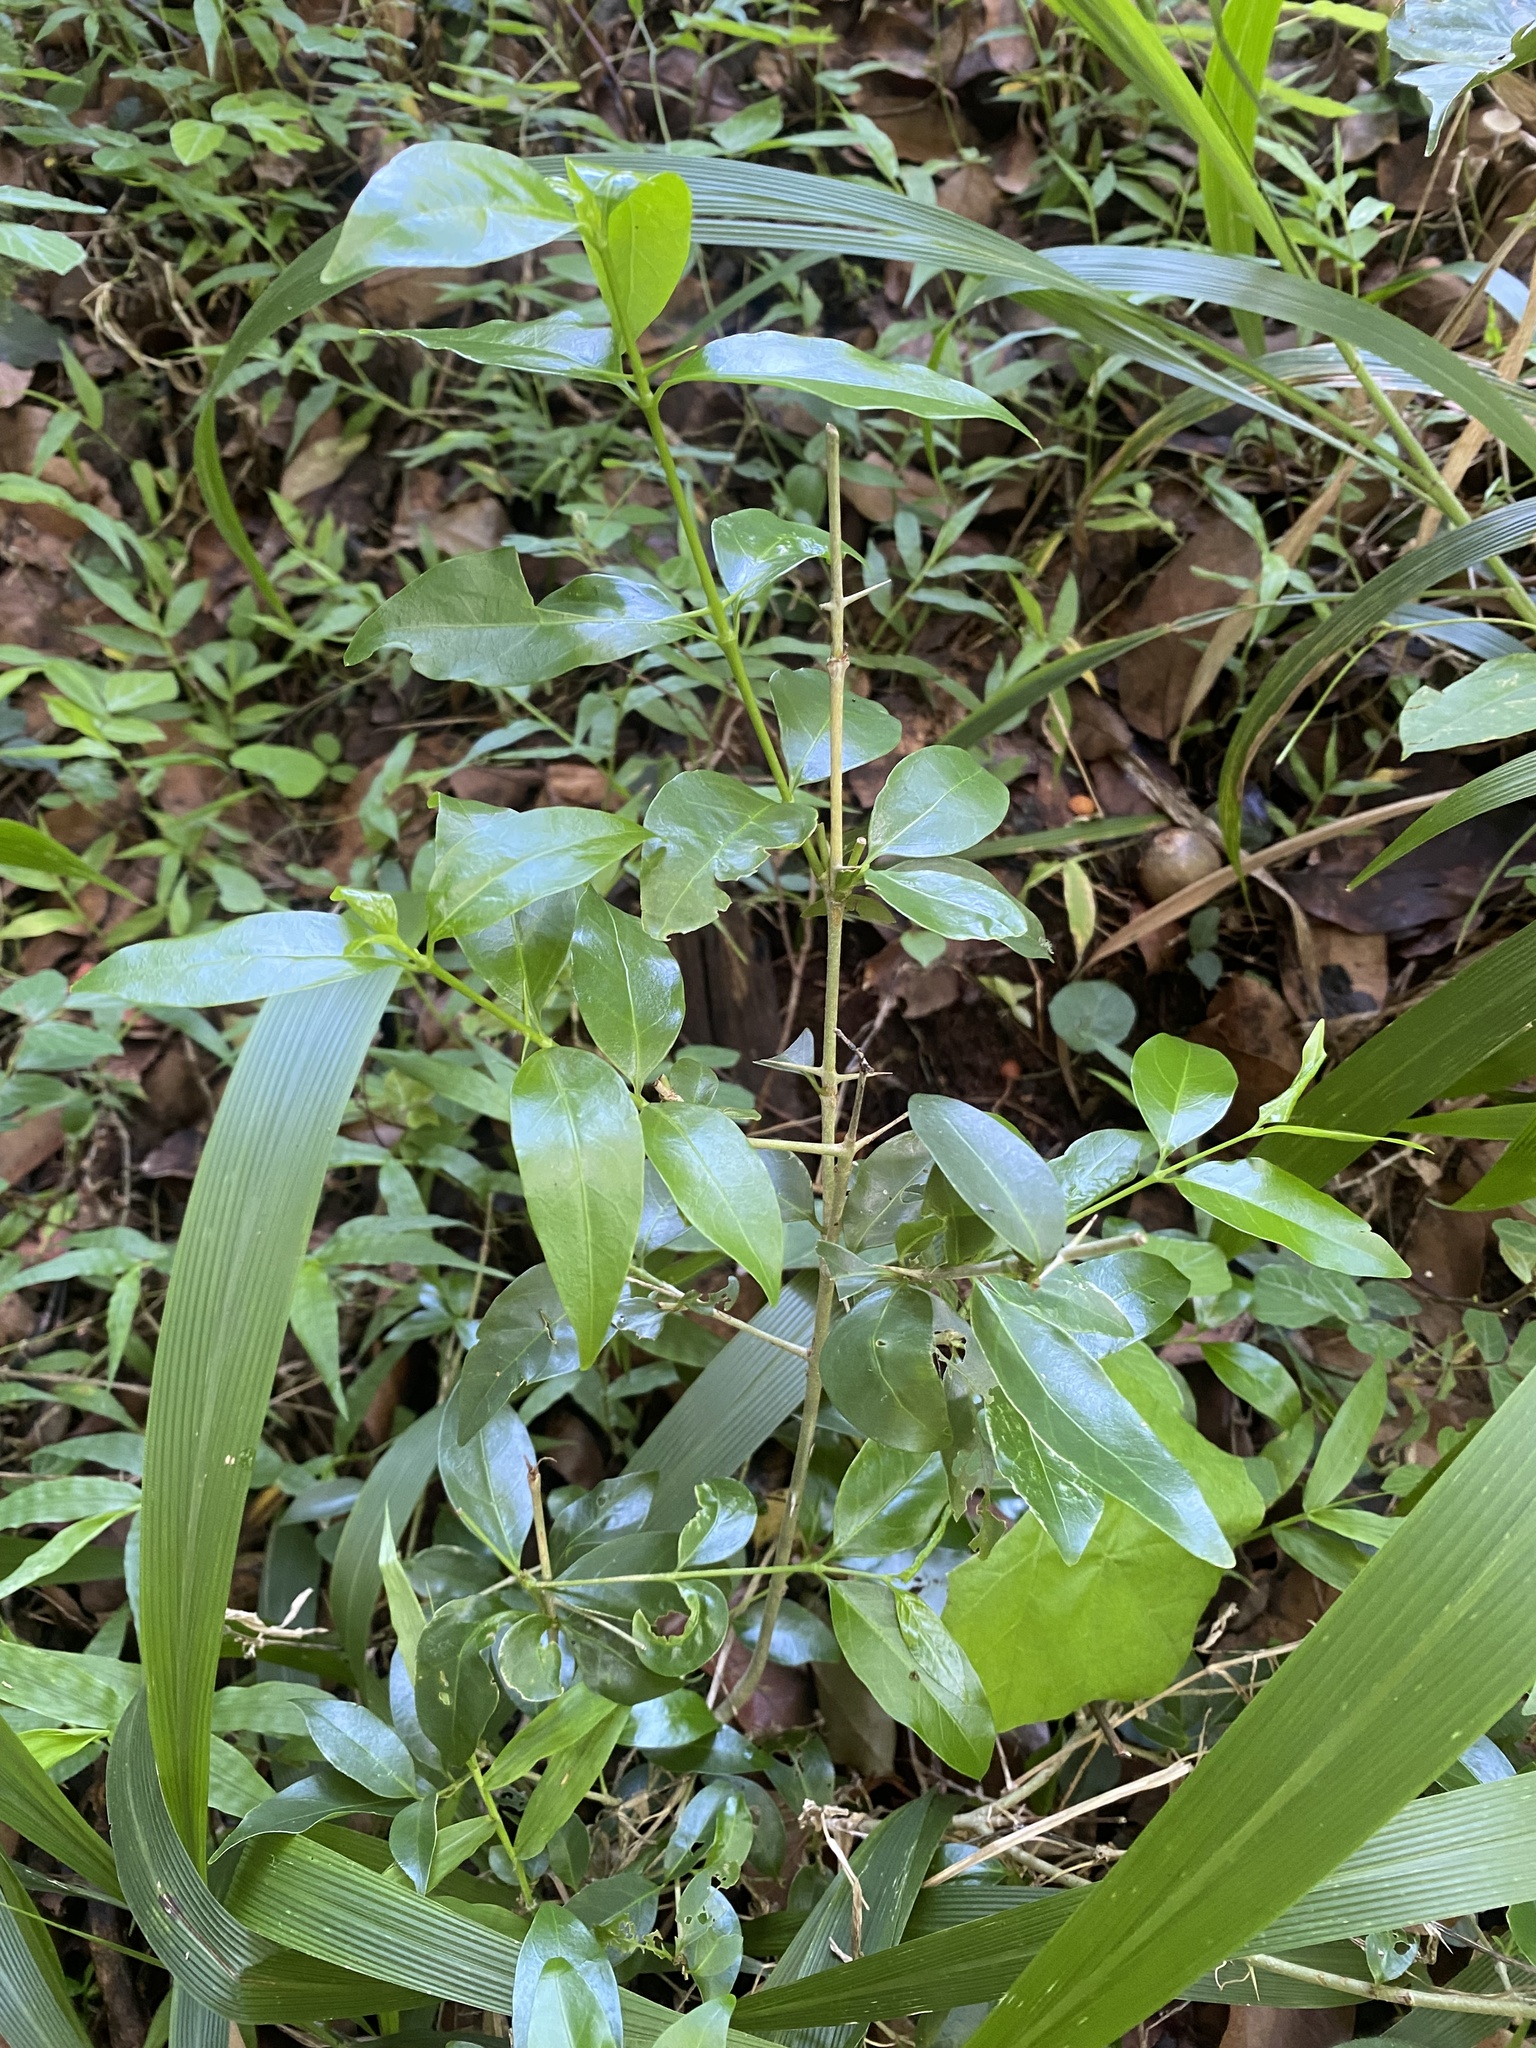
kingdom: Plantae
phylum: Tracheophyta
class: Magnoliopsida
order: Gentianales
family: Rubiaceae
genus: Canthium
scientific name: Canthium inerme
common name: Unarmed turkey-berry
